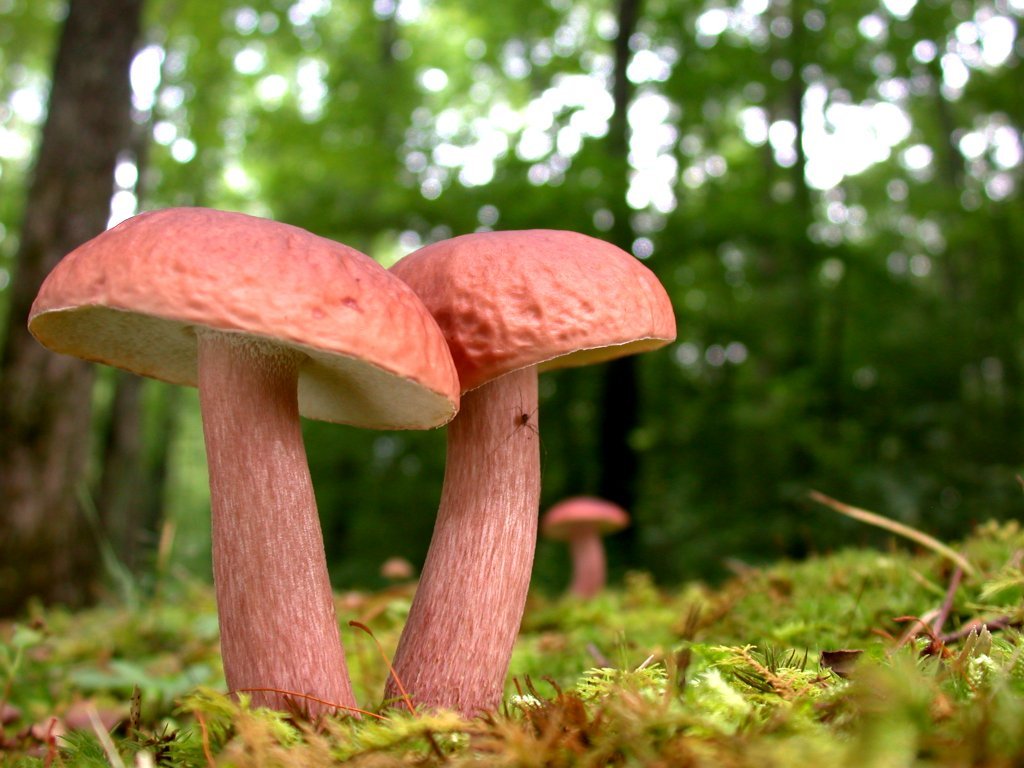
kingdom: Fungi
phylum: Basidiomycota
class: Agaricomycetes
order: Boletales
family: Boletaceae
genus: Xanthoconium
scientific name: Xanthoconium separans
